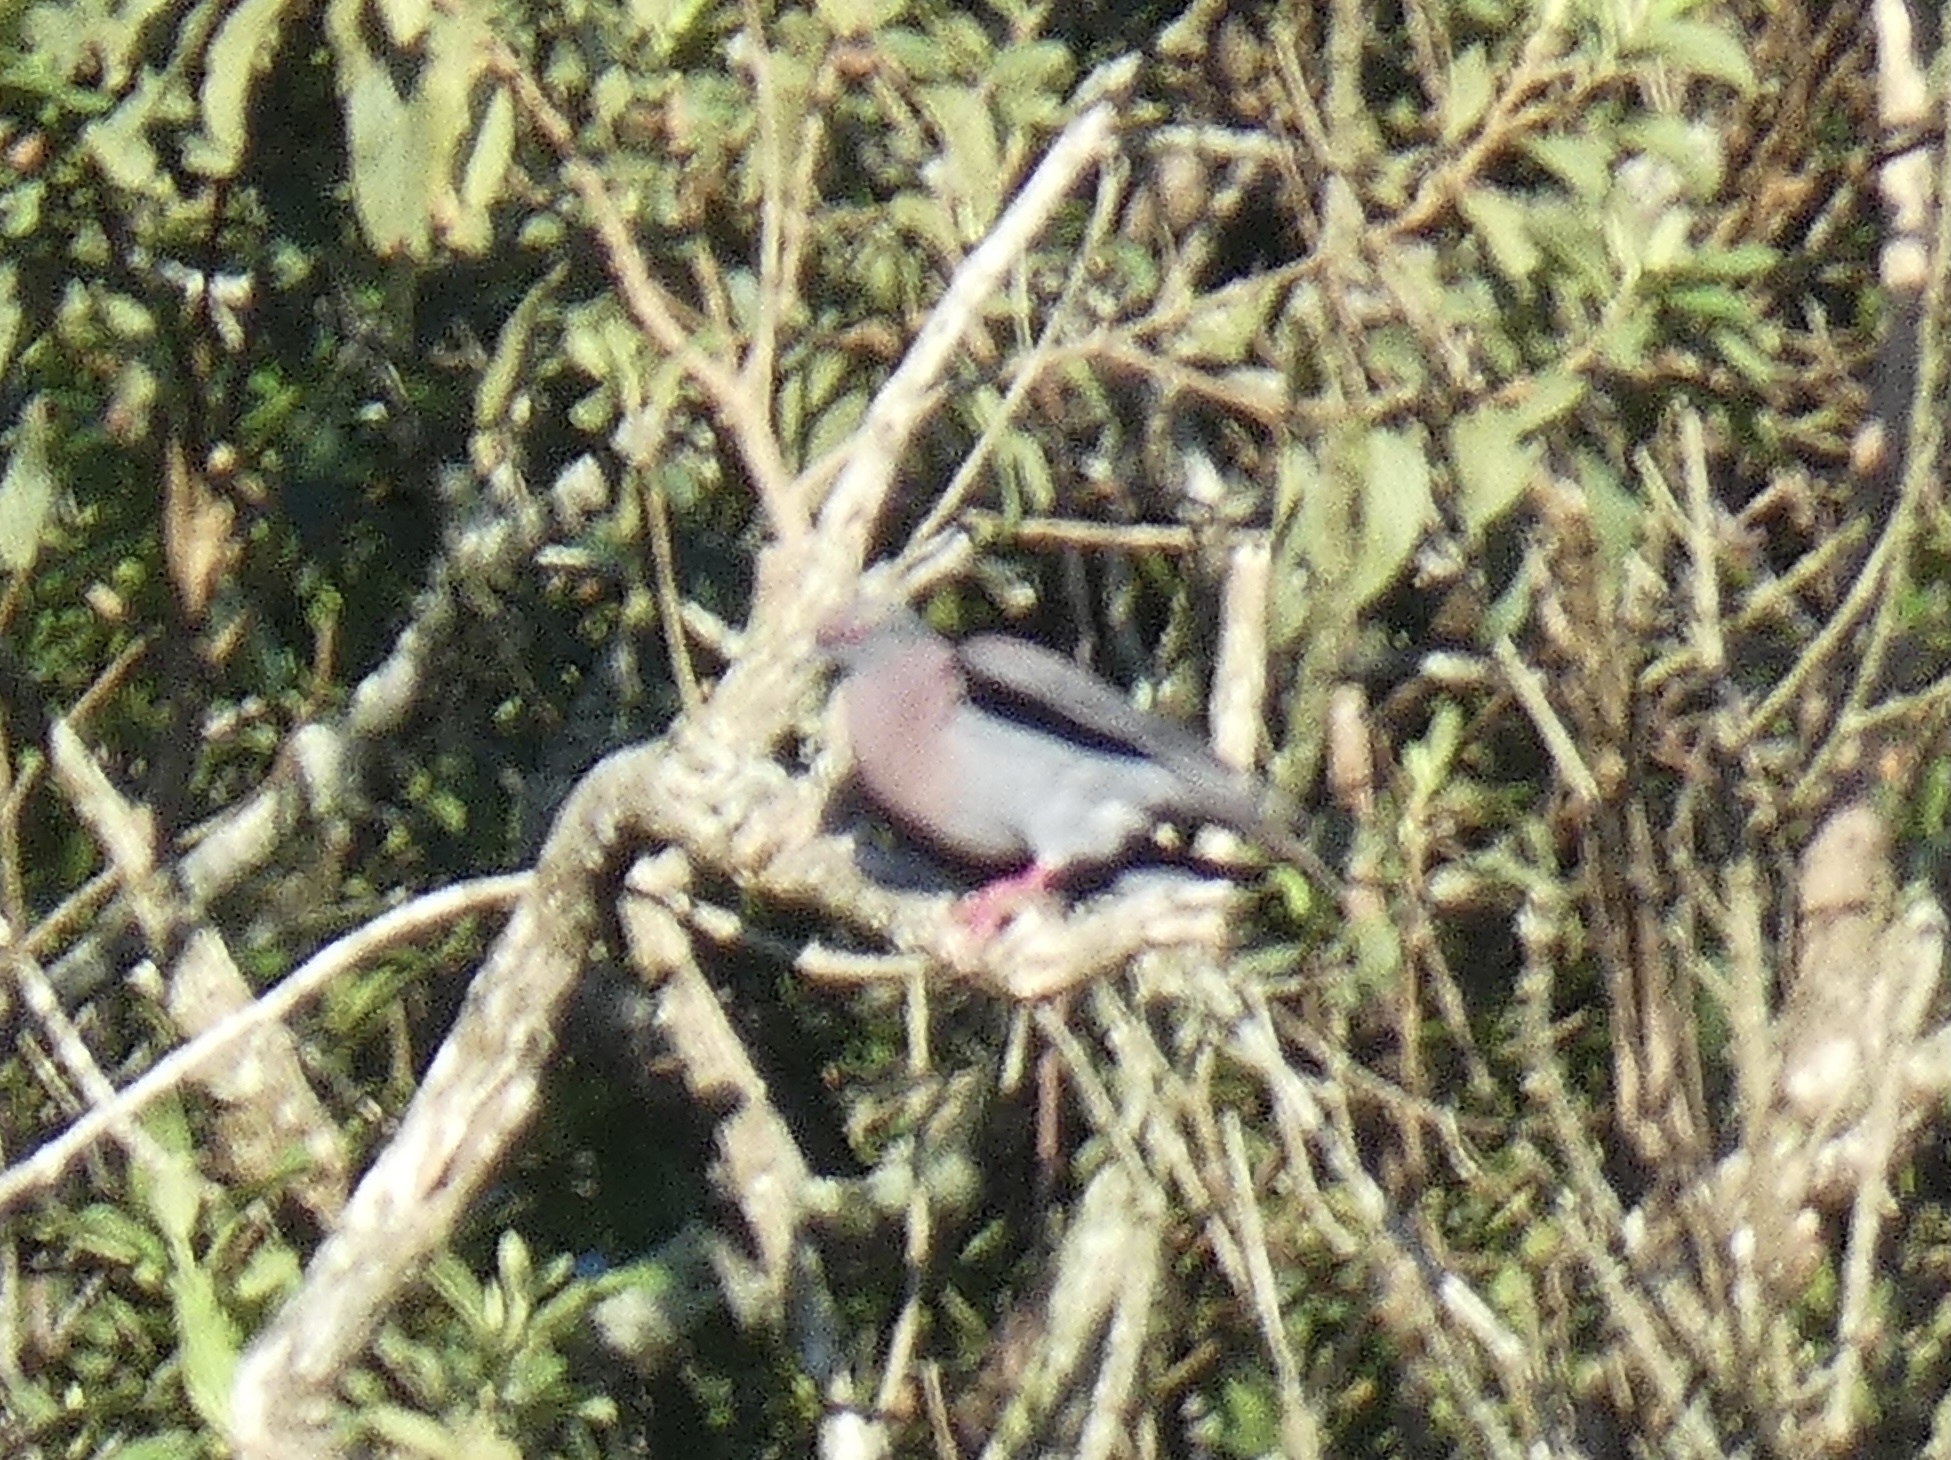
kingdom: Animalia
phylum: Chordata
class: Aves
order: Columbiformes
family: Columbidae
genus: Patagioenas
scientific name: Patagioenas cayennensis
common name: Pale-vented pigeon
